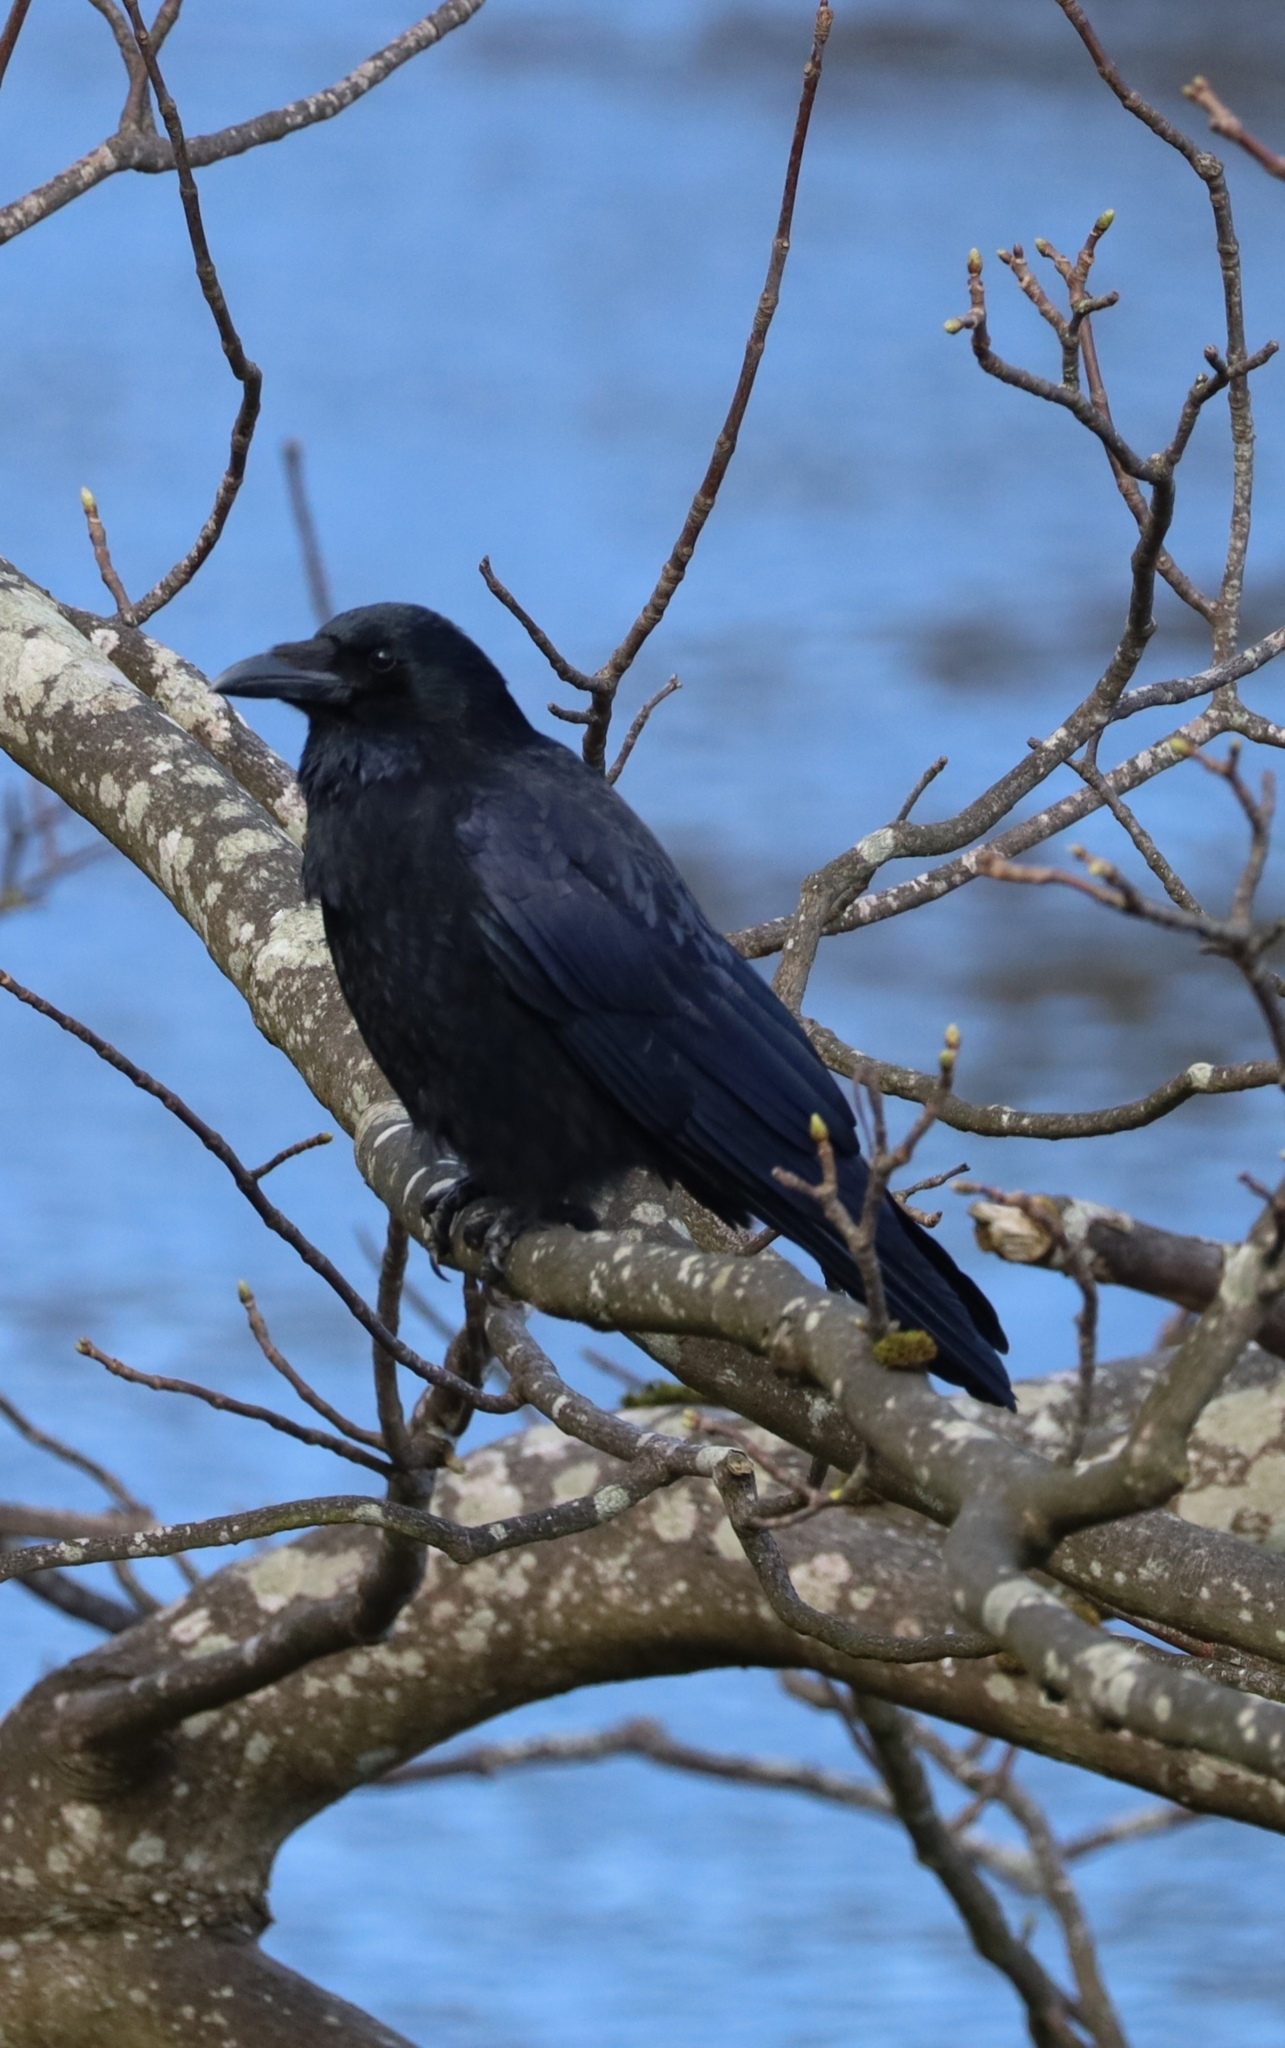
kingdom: Animalia
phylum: Chordata
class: Aves
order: Passeriformes
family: Corvidae
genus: Corvus
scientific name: Corvus corone
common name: Carrion crow
